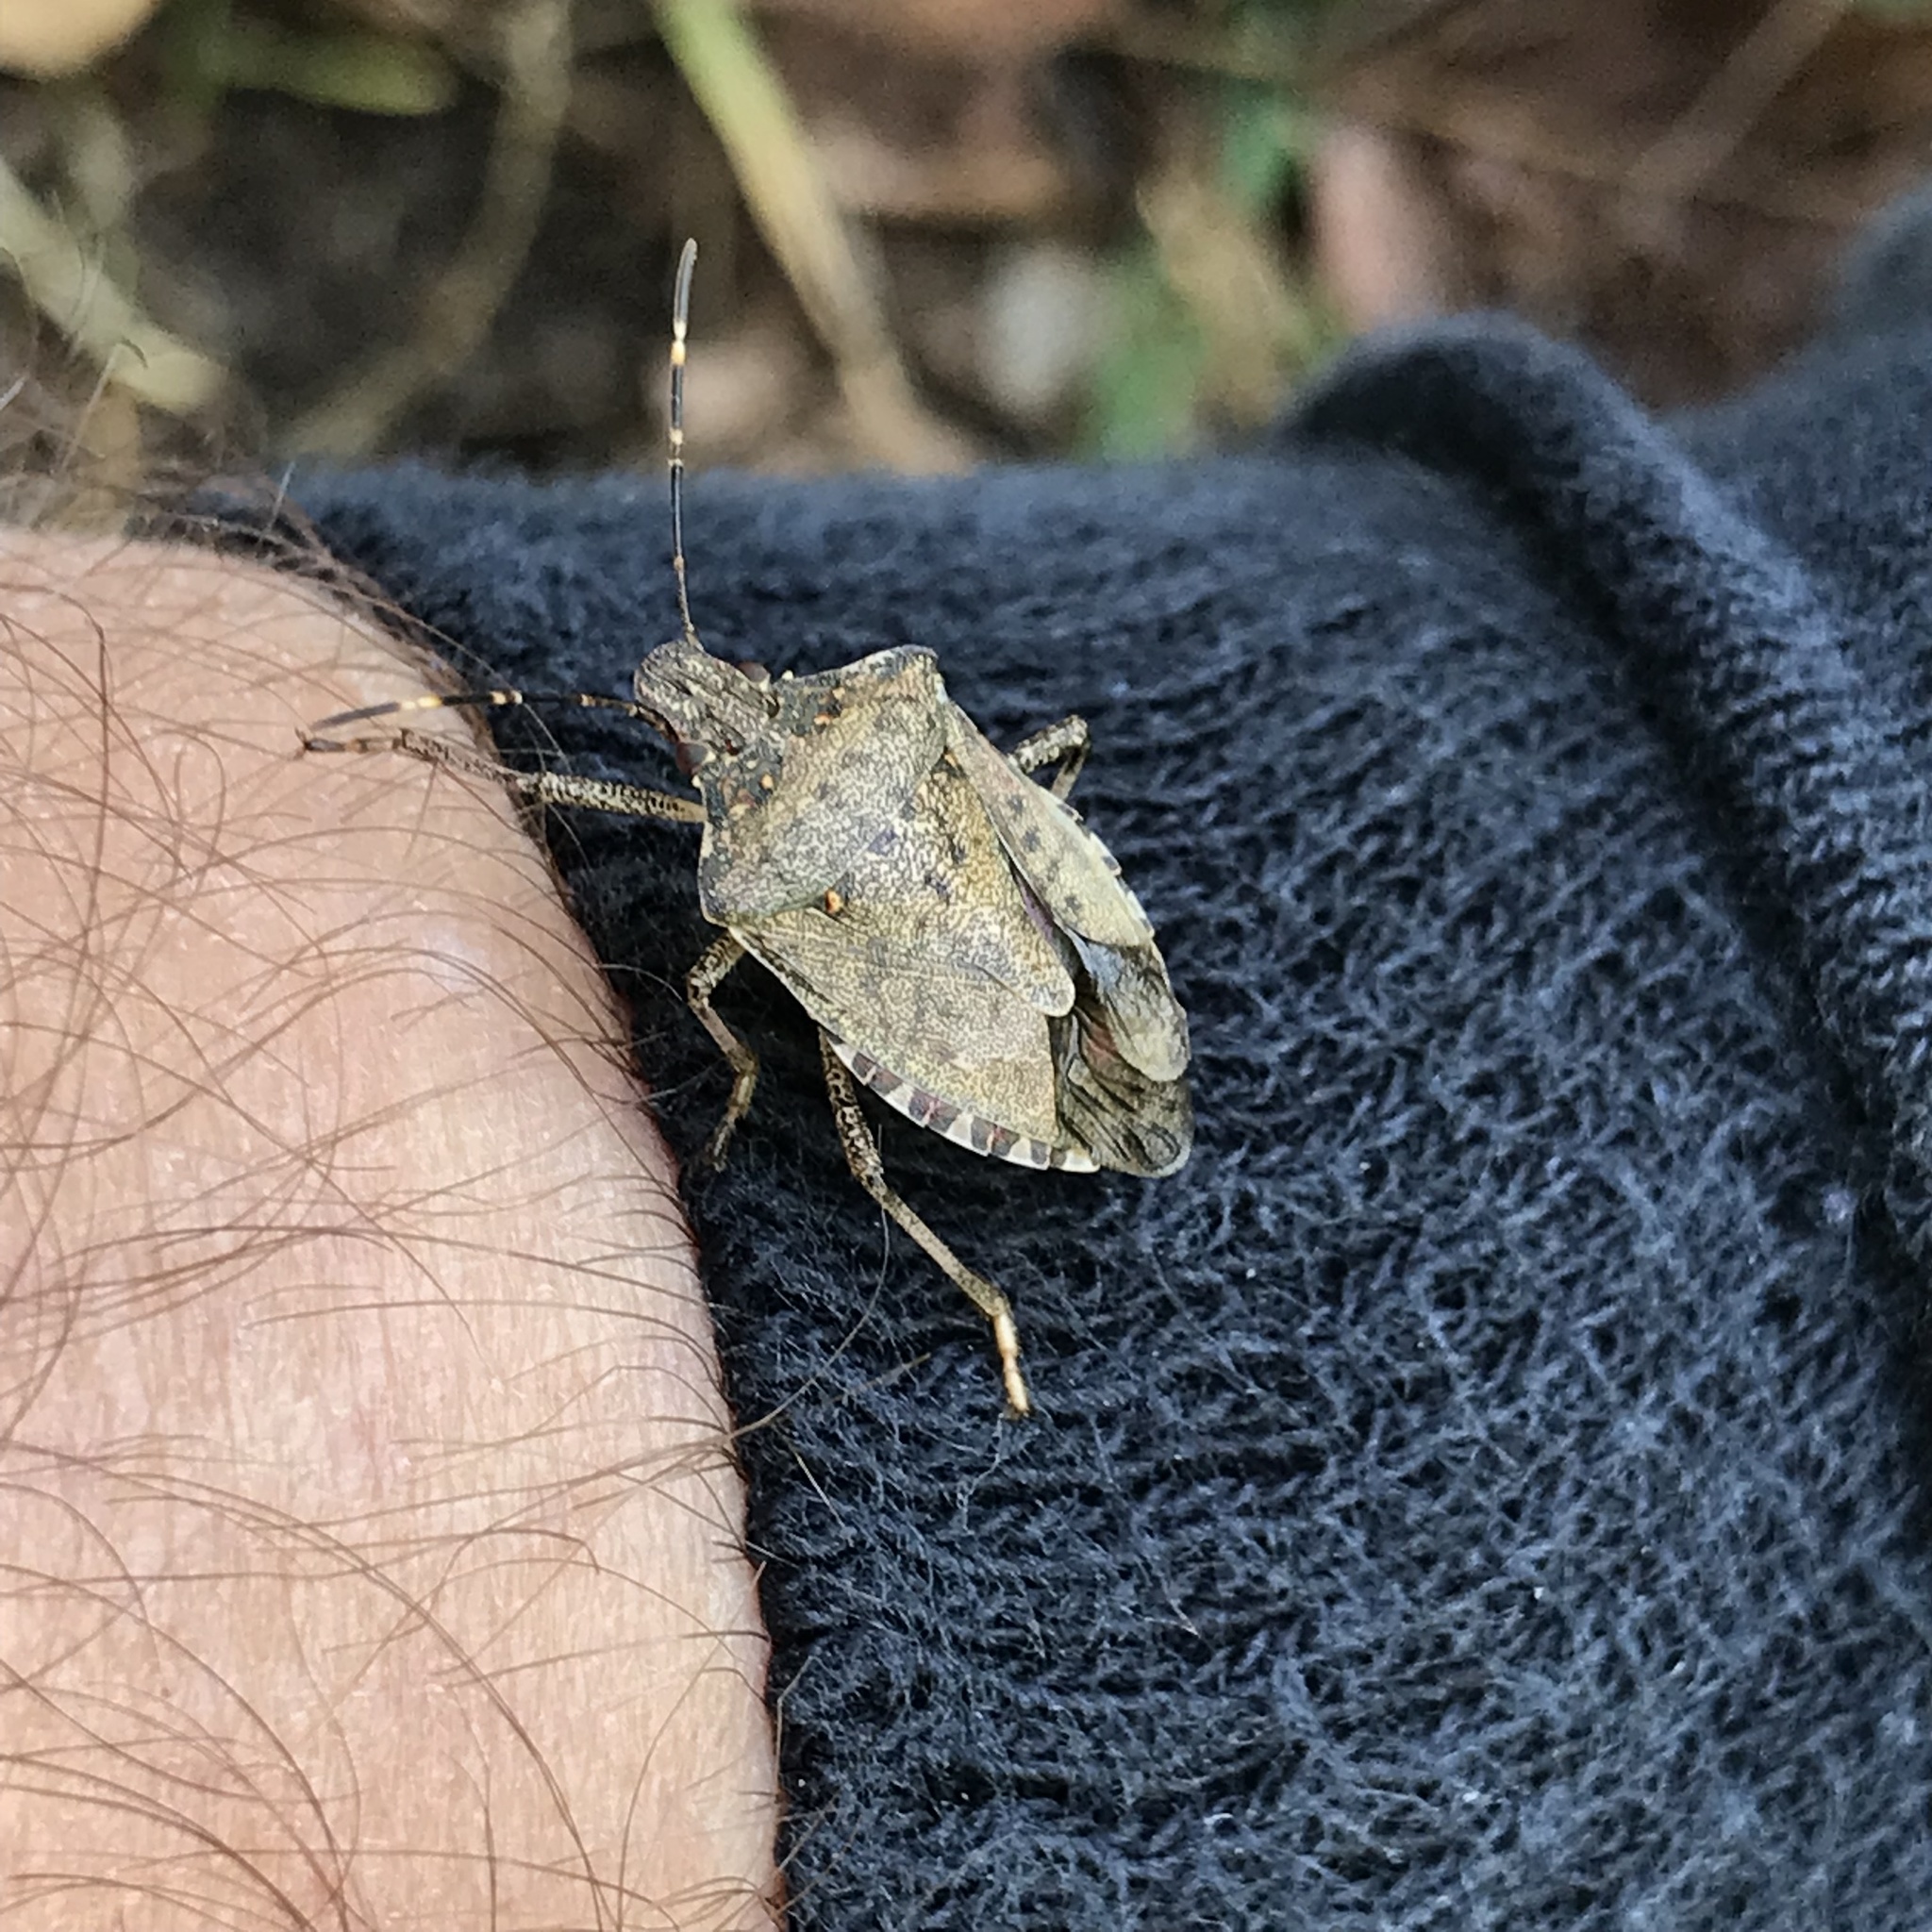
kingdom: Animalia
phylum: Arthropoda
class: Insecta
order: Hemiptera
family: Pentatomidae
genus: Halyomorpha
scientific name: Halyomorpha halys
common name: Brown marmorated stink bug
